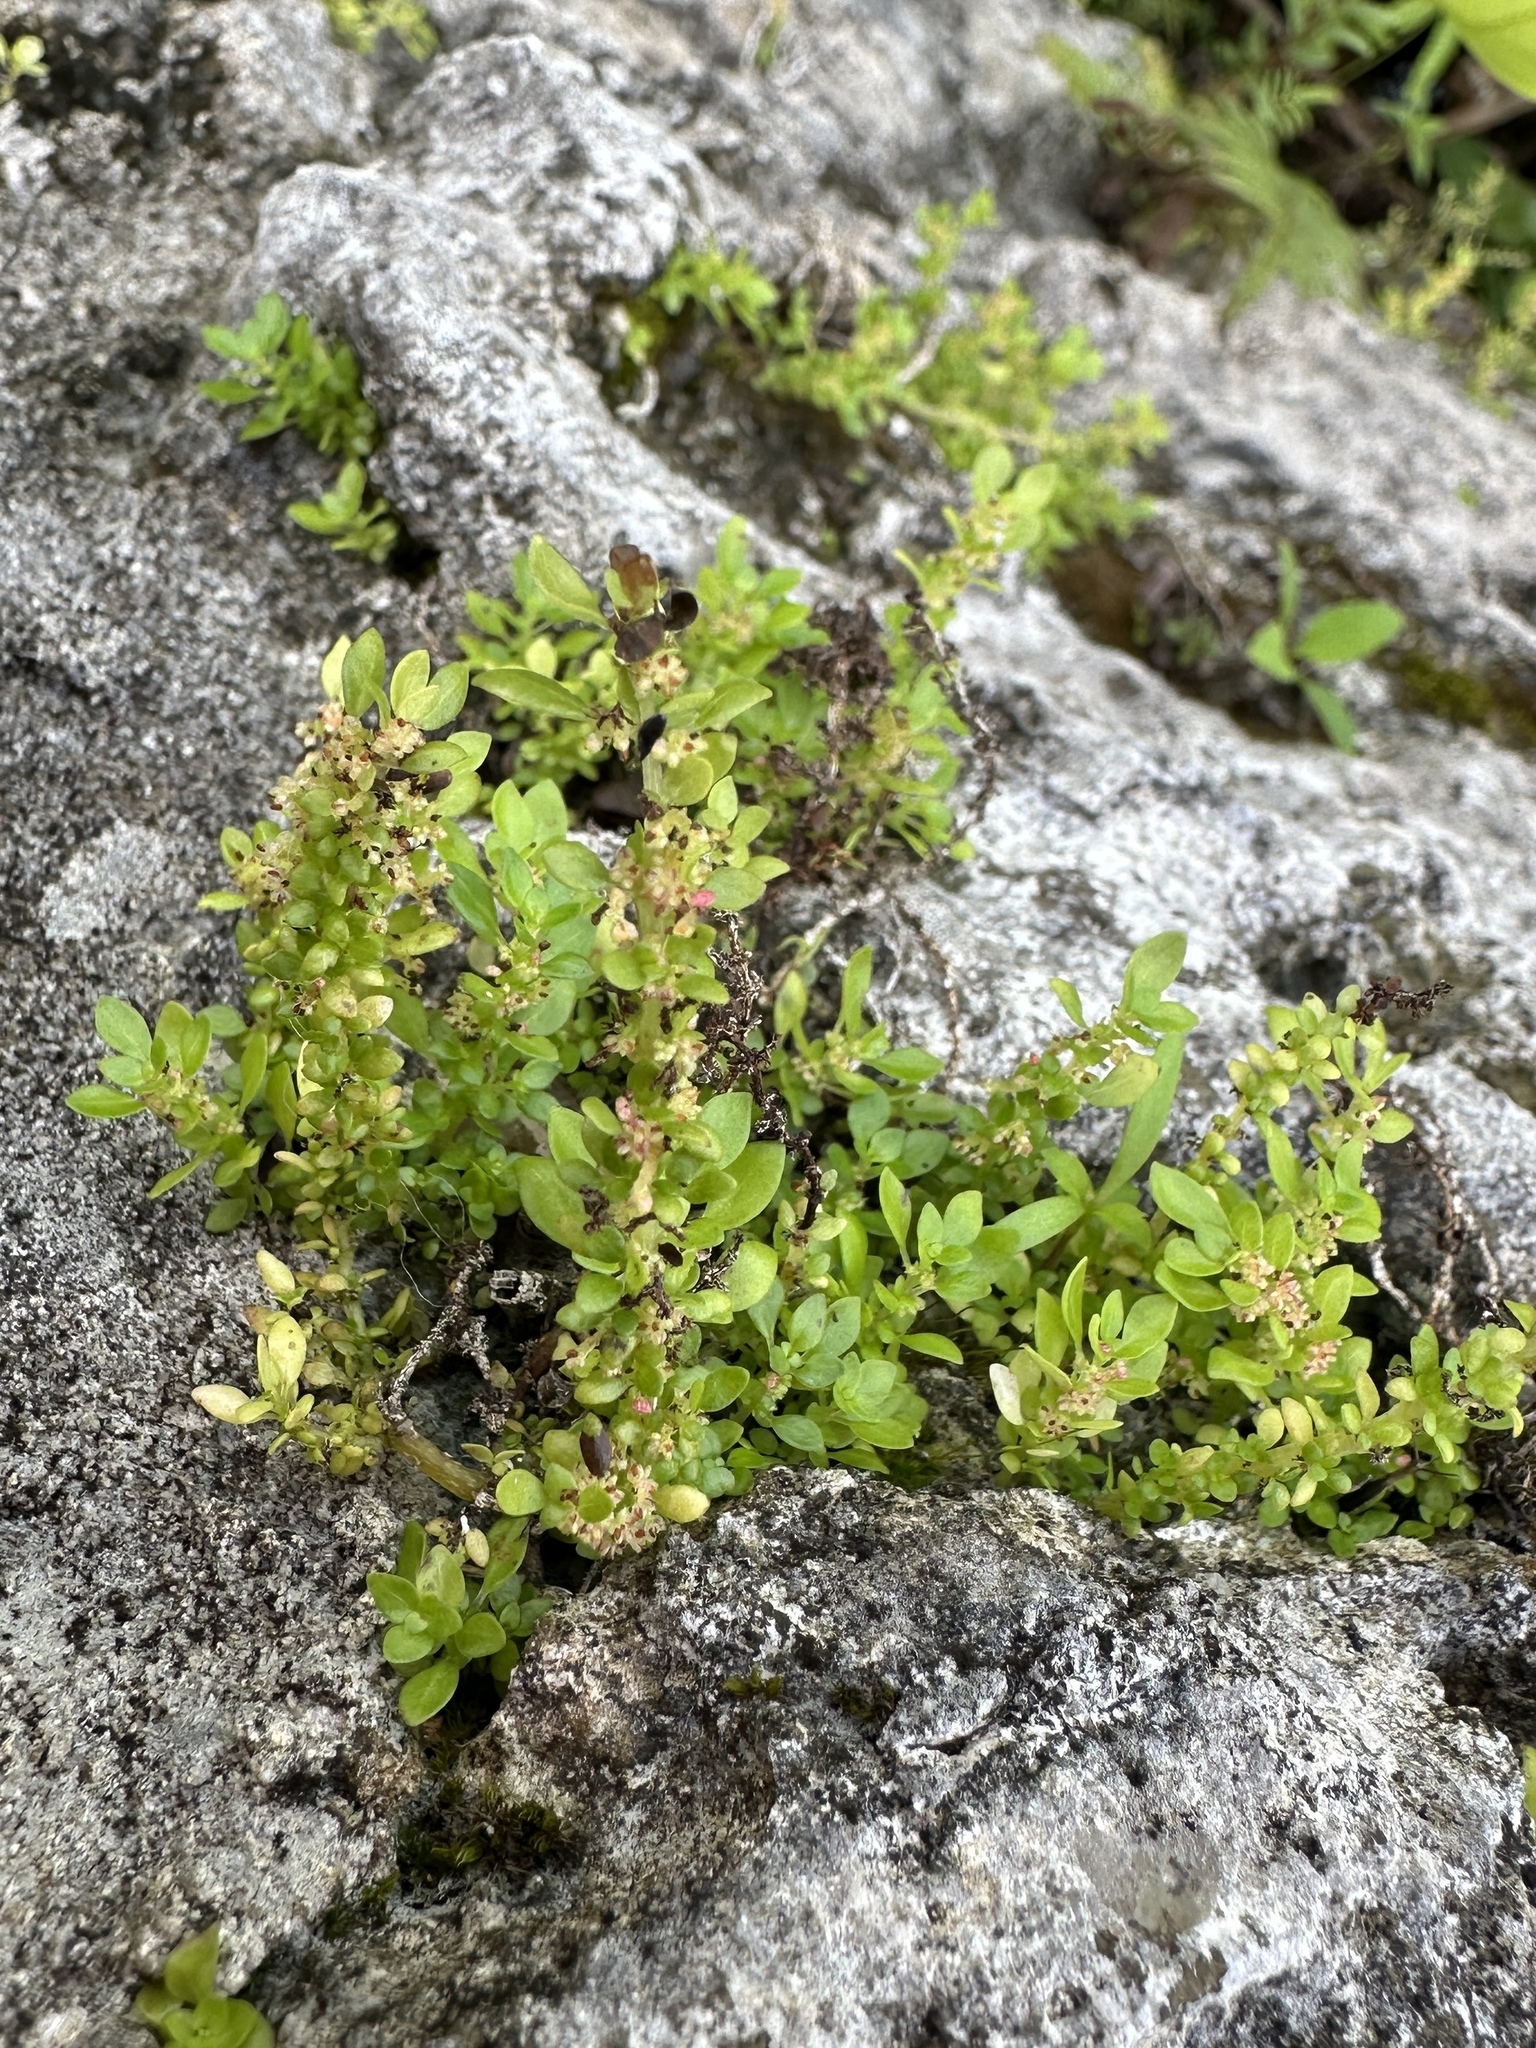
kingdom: Plantae
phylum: Tracheophyta
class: Magnoliopsida
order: Rosales
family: Urticaceae
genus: Pilea
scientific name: Pilea microphylla
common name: Artillery-plant
